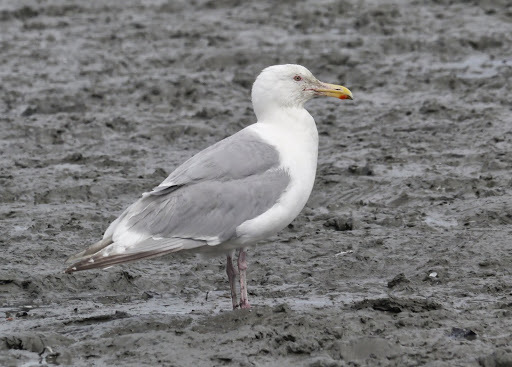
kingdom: Animalia
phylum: Chordata
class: Aves
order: Charadriiformes
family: Laridae
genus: Larus
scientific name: Larus glaucescens
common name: Glaucous-winged gull
